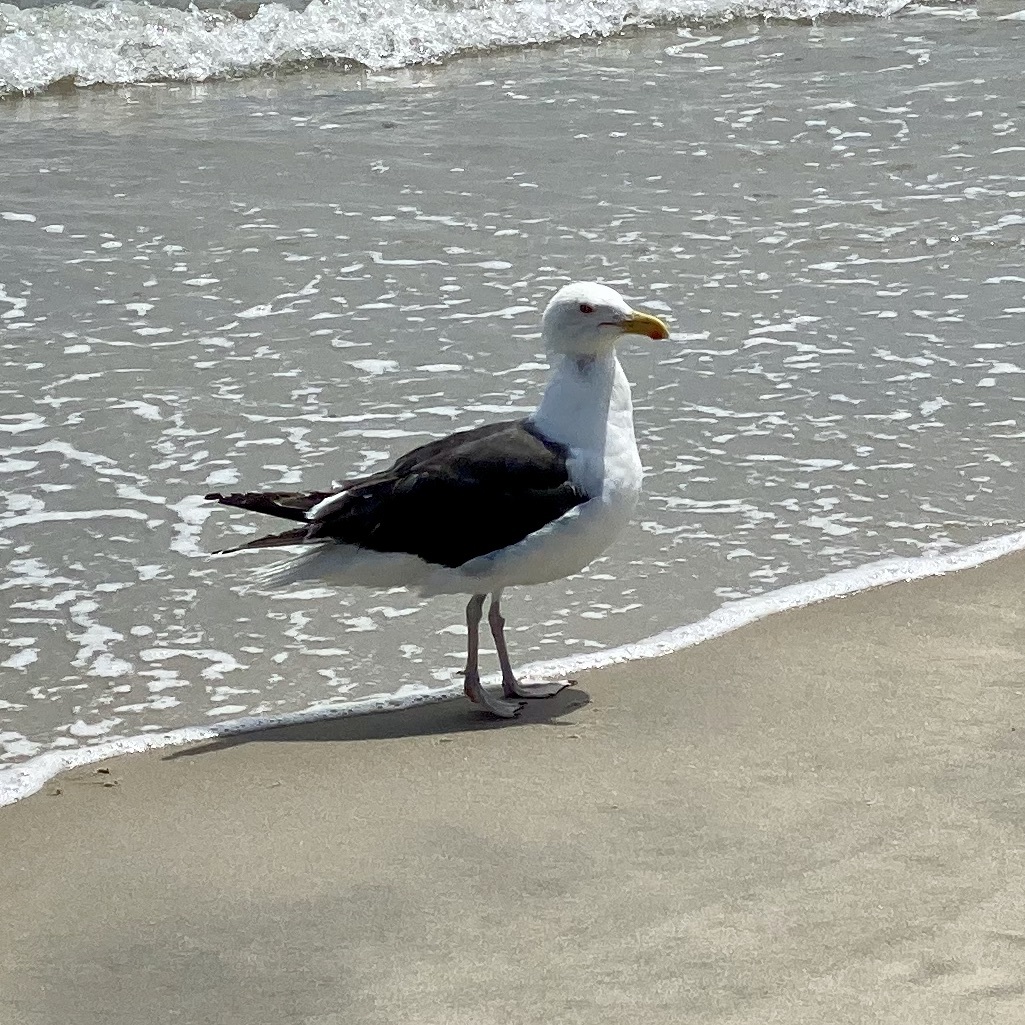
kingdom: Animalia
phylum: Chordata
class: Aves
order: Charadriiformes
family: Laridae
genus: Larus
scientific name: Larus marinus
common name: Great black-backed gull
